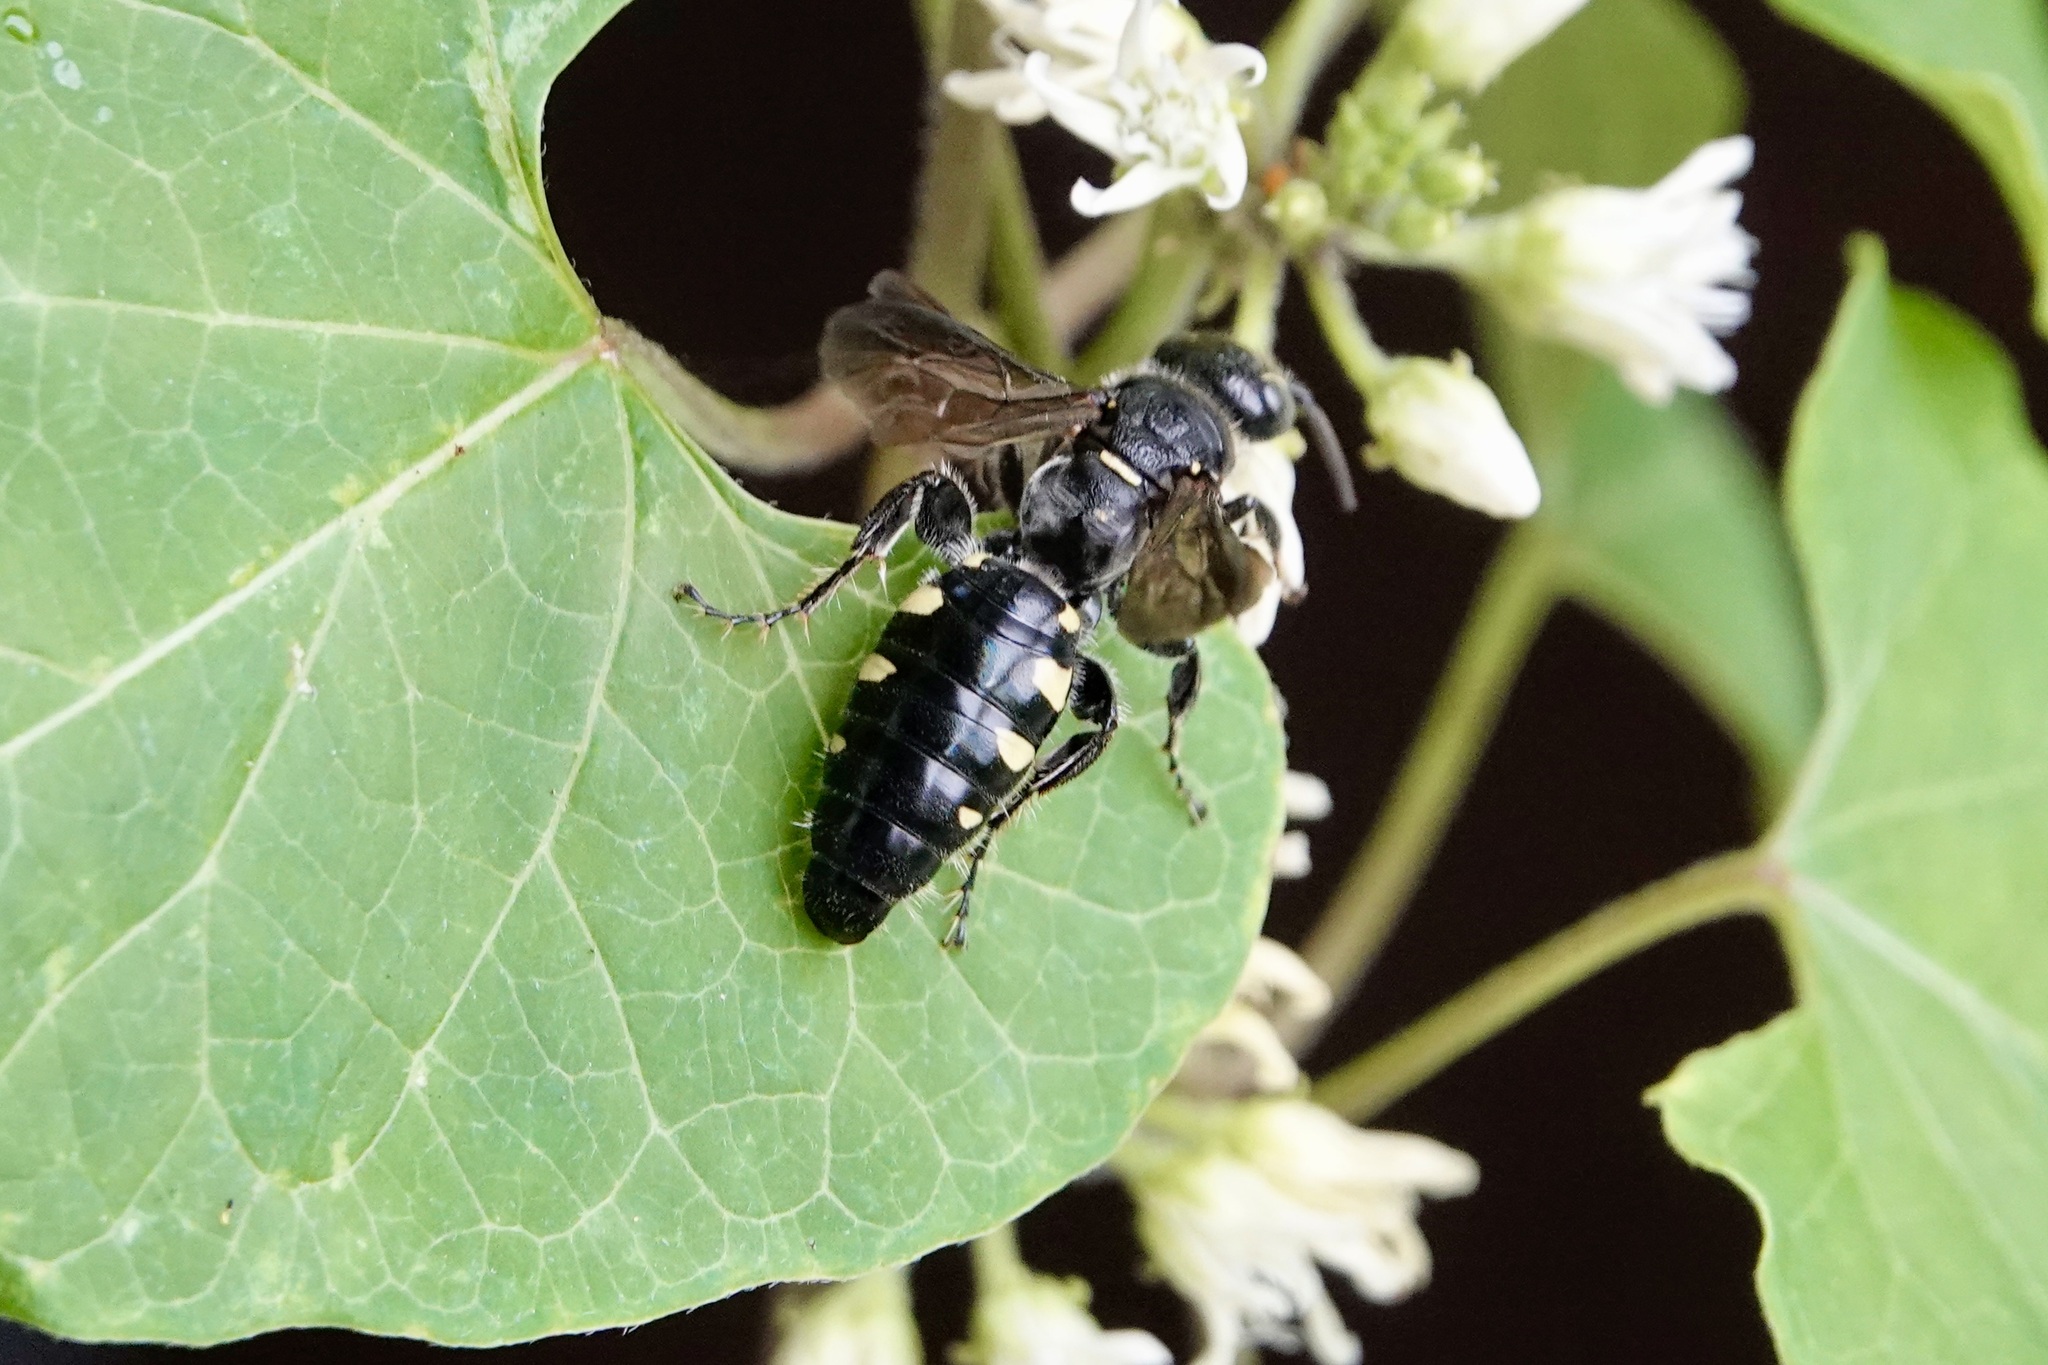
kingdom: Animalia
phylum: Arthropoda
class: Insecta
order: Hymenoptera
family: Tiphiidae
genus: Myzinum
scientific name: Myzinum obscurum
